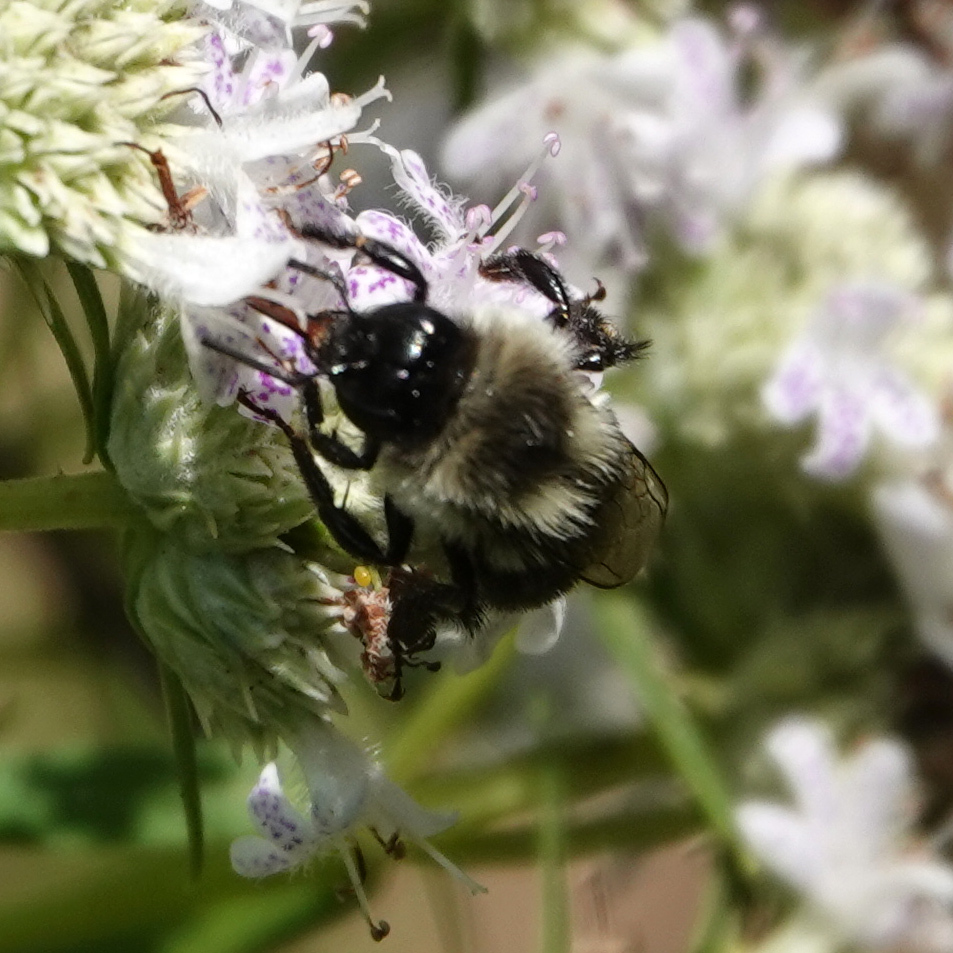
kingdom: Animalia
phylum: Arthropoda
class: Insecta
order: Hymenoptera
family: Apidae
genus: Bombus
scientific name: Bombus impatiens
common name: Common eastern bumble bee
